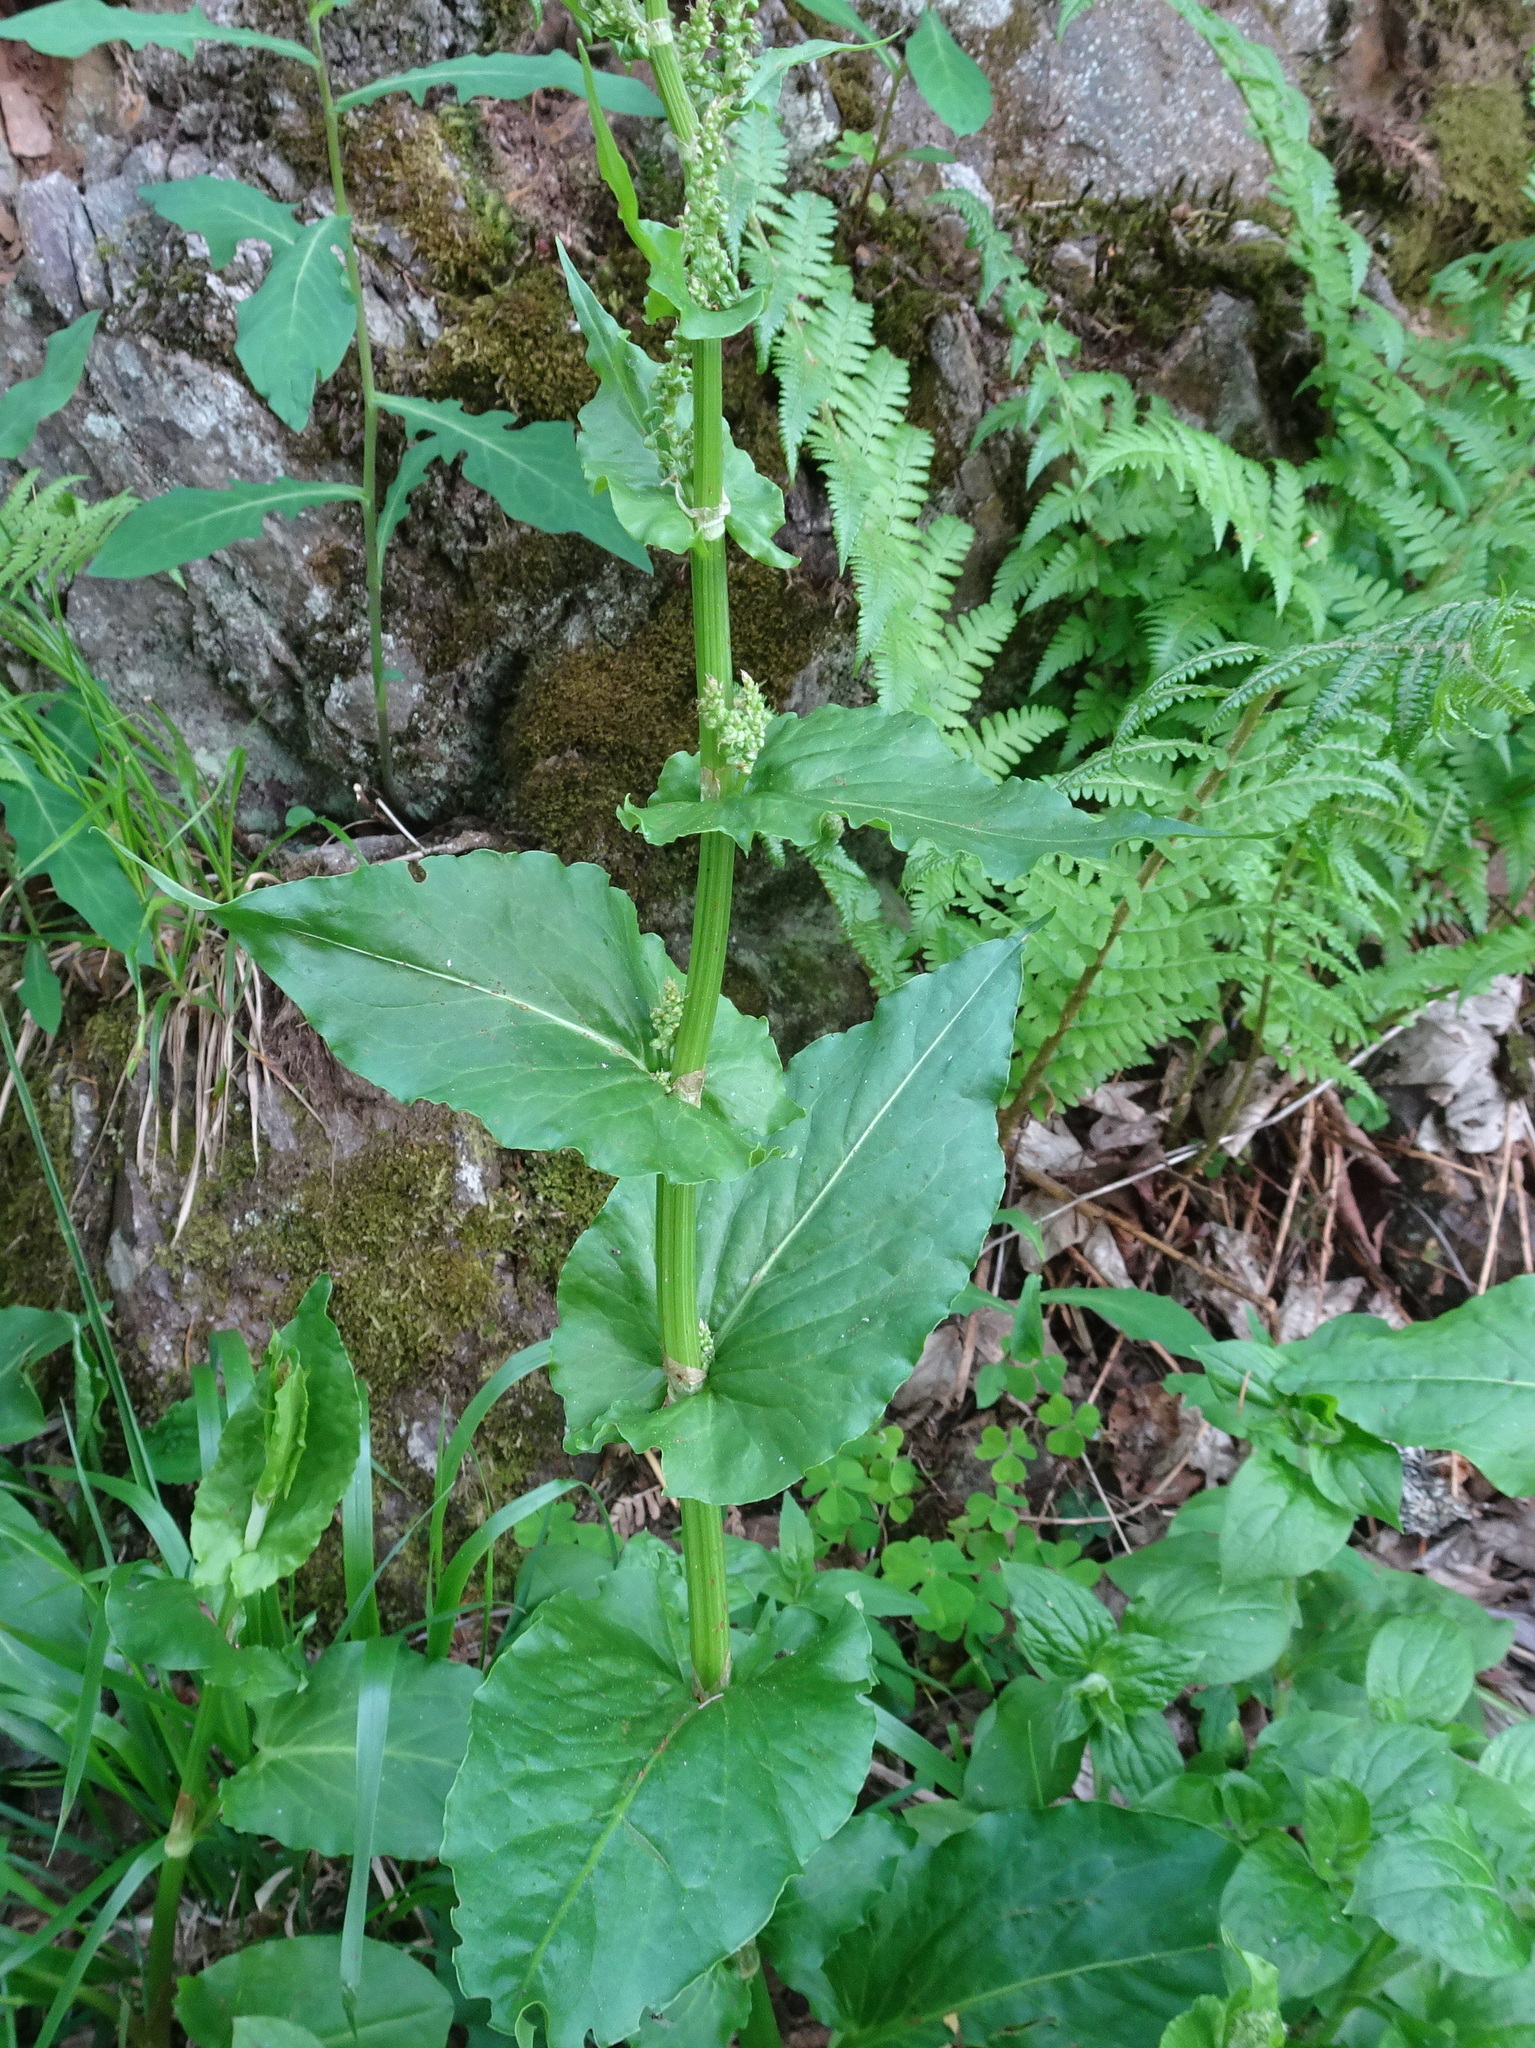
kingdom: Plantae
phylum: Tracheophyta
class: Magnoliopsida
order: Caryophyllales
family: Polygonaceae
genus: Rumex
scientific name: Rumex arifolius
